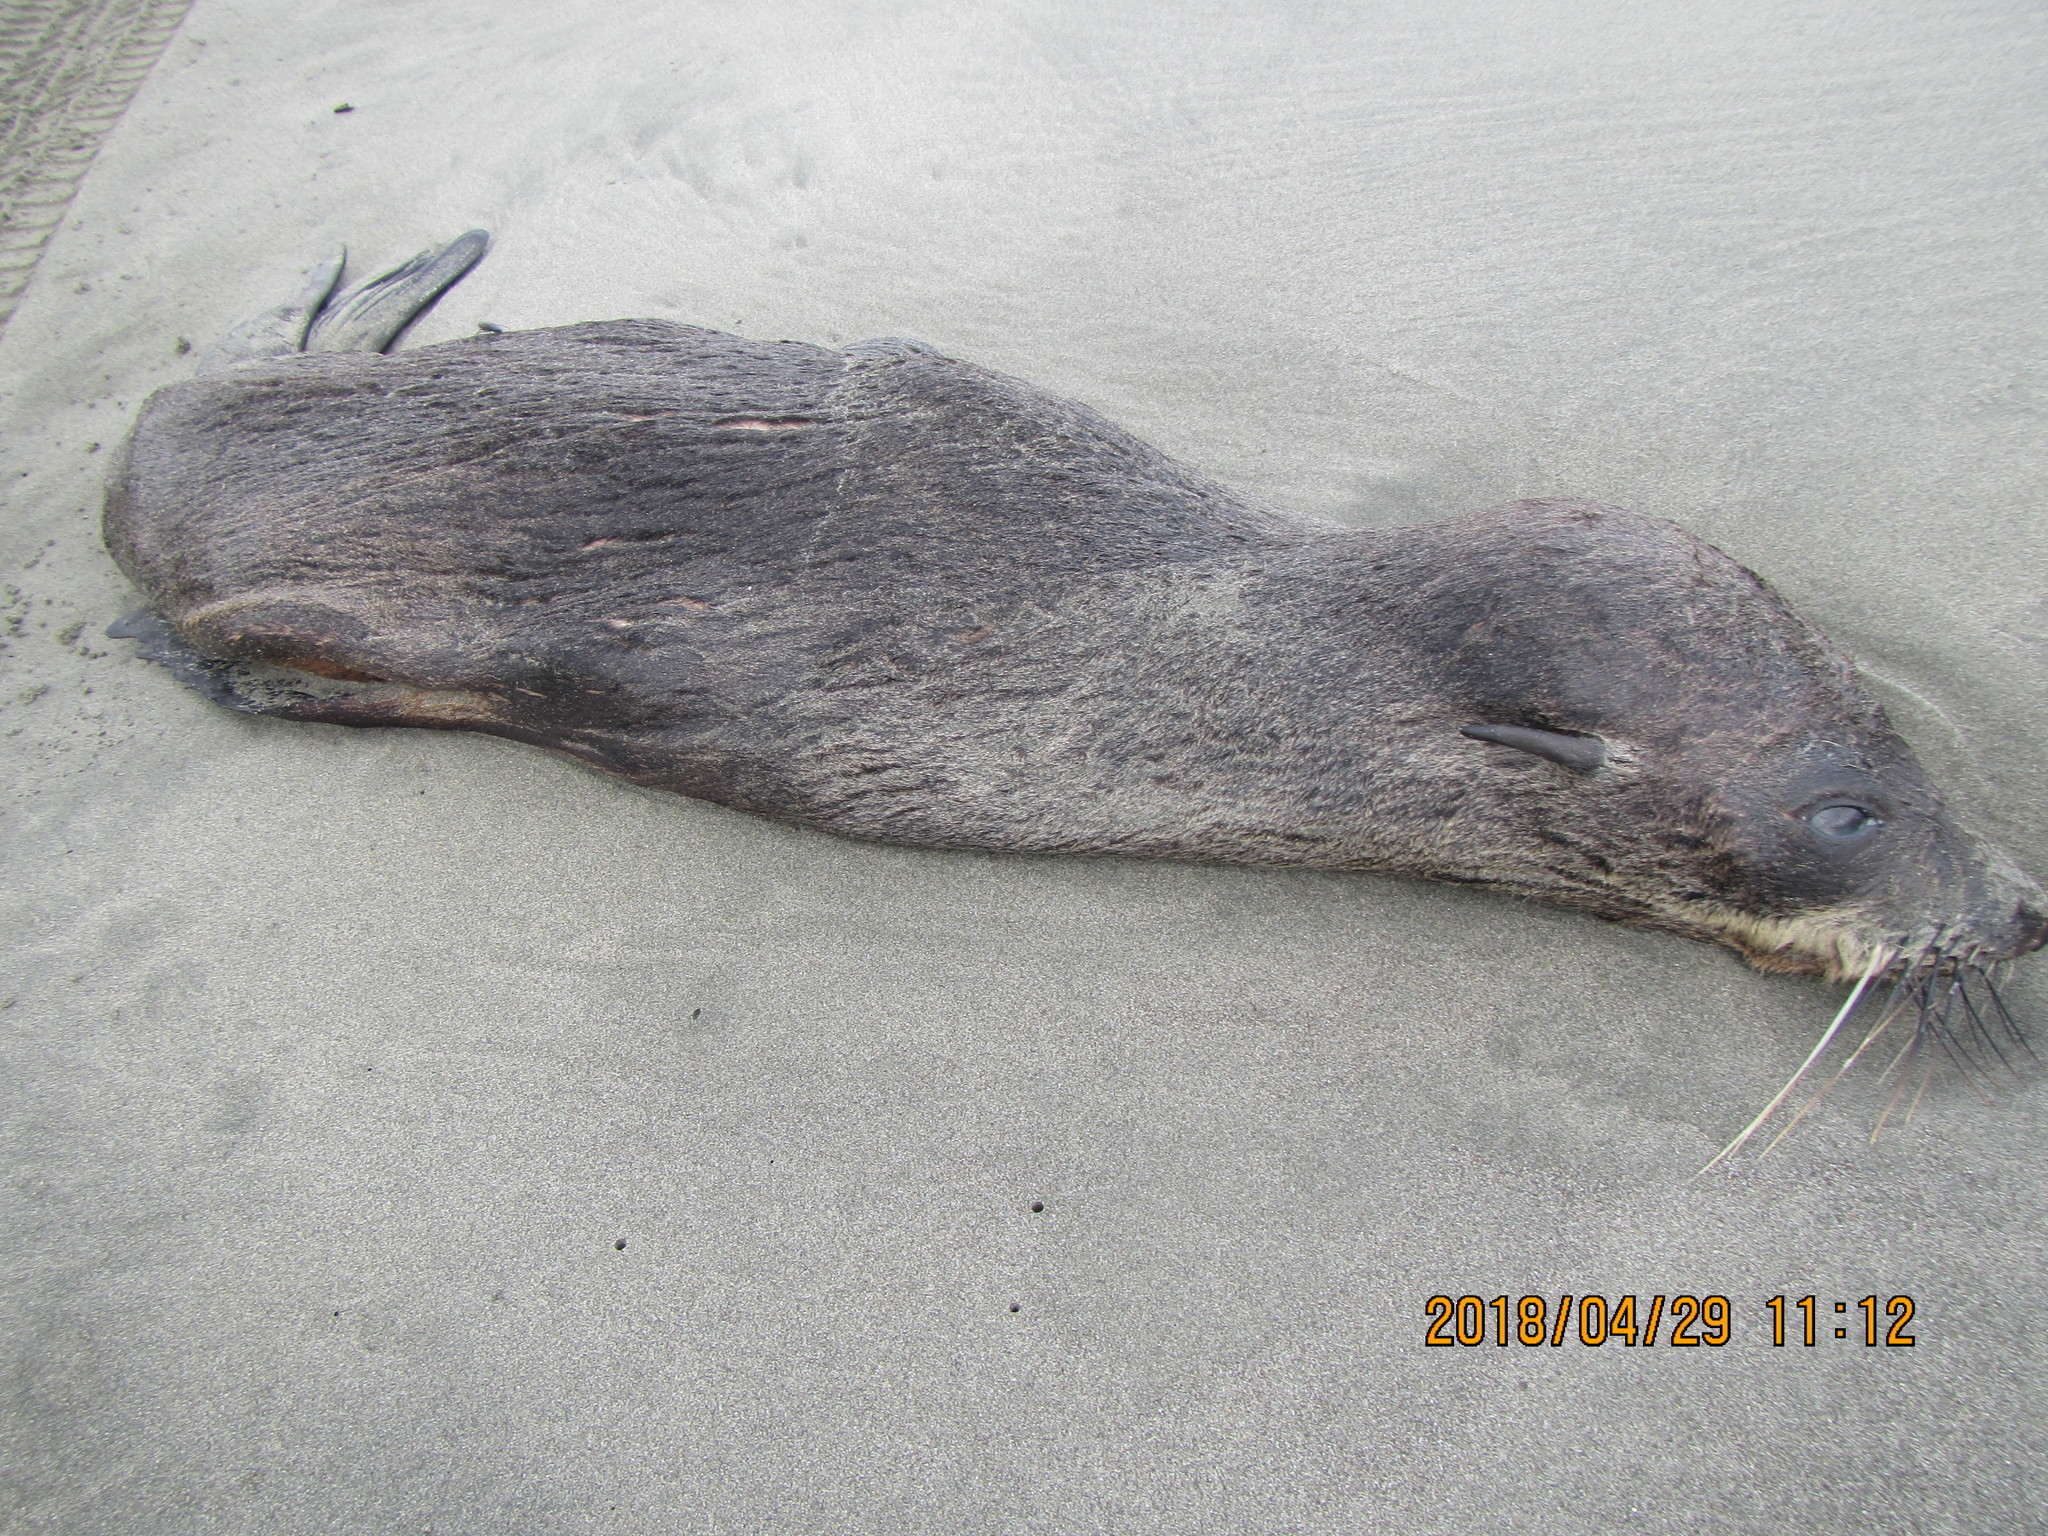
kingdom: Animalia
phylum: Chordata
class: Mammalia
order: Carnivora
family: Otariidae
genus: Arctocephalus
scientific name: Arctocephalus forsteri
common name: New zealand fur seal
